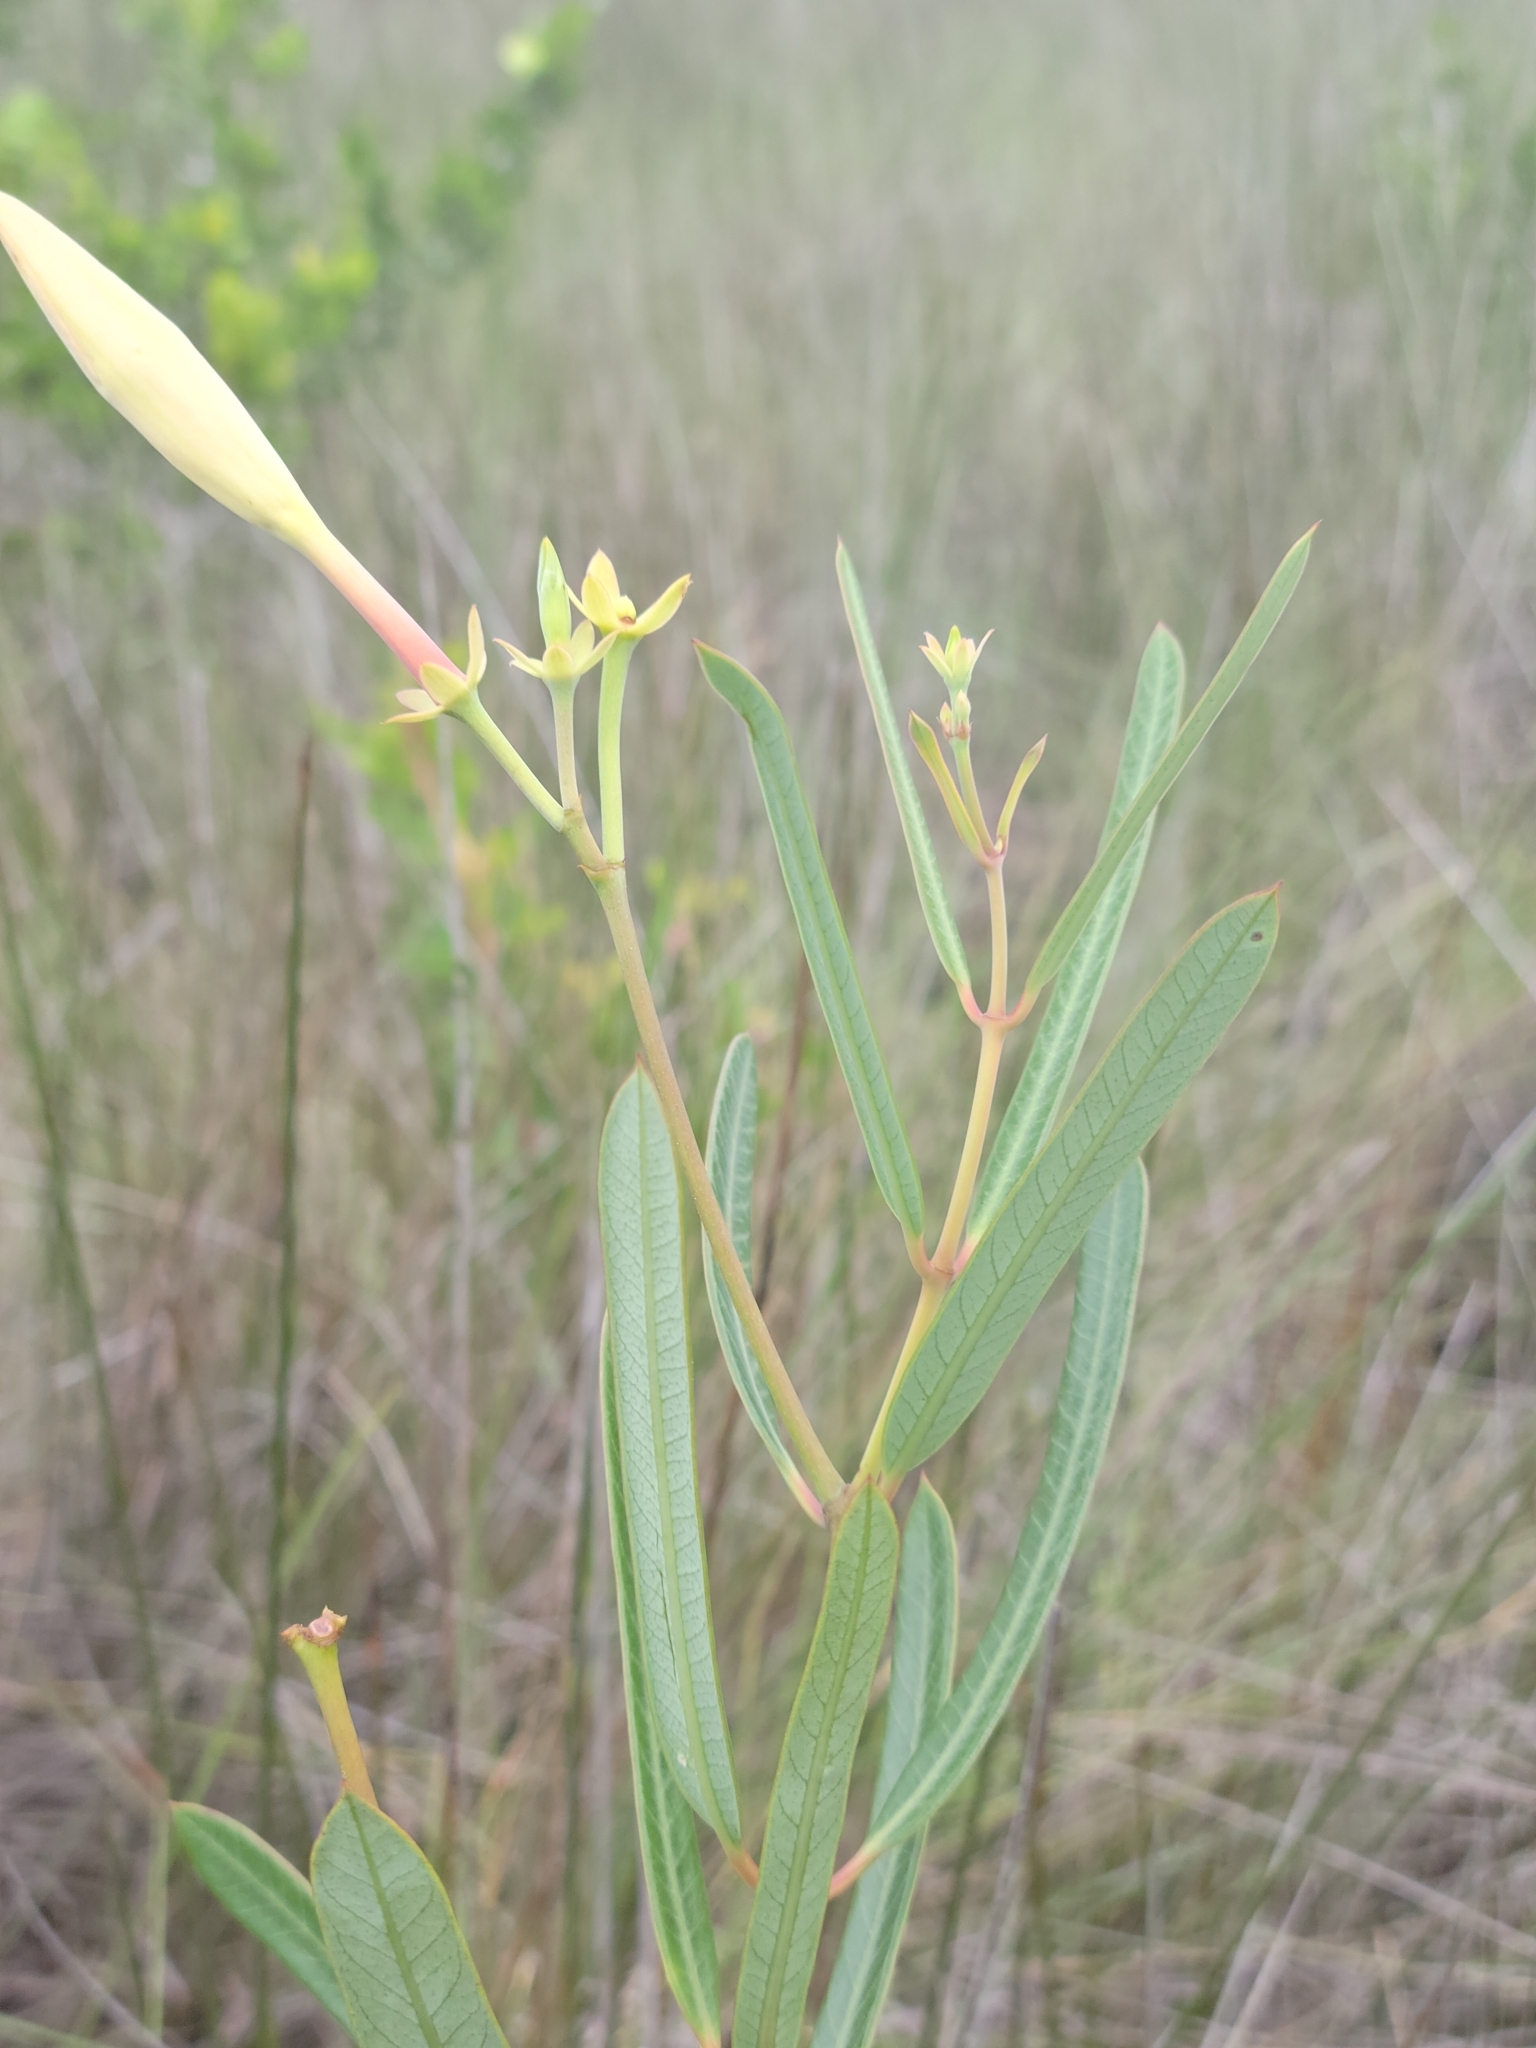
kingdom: Plantae
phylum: Tracheophyta
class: Magnoliopsida
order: Gentianales
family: Apocynaceae
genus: Rhabdadenia
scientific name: Rhabdadenia biflora
